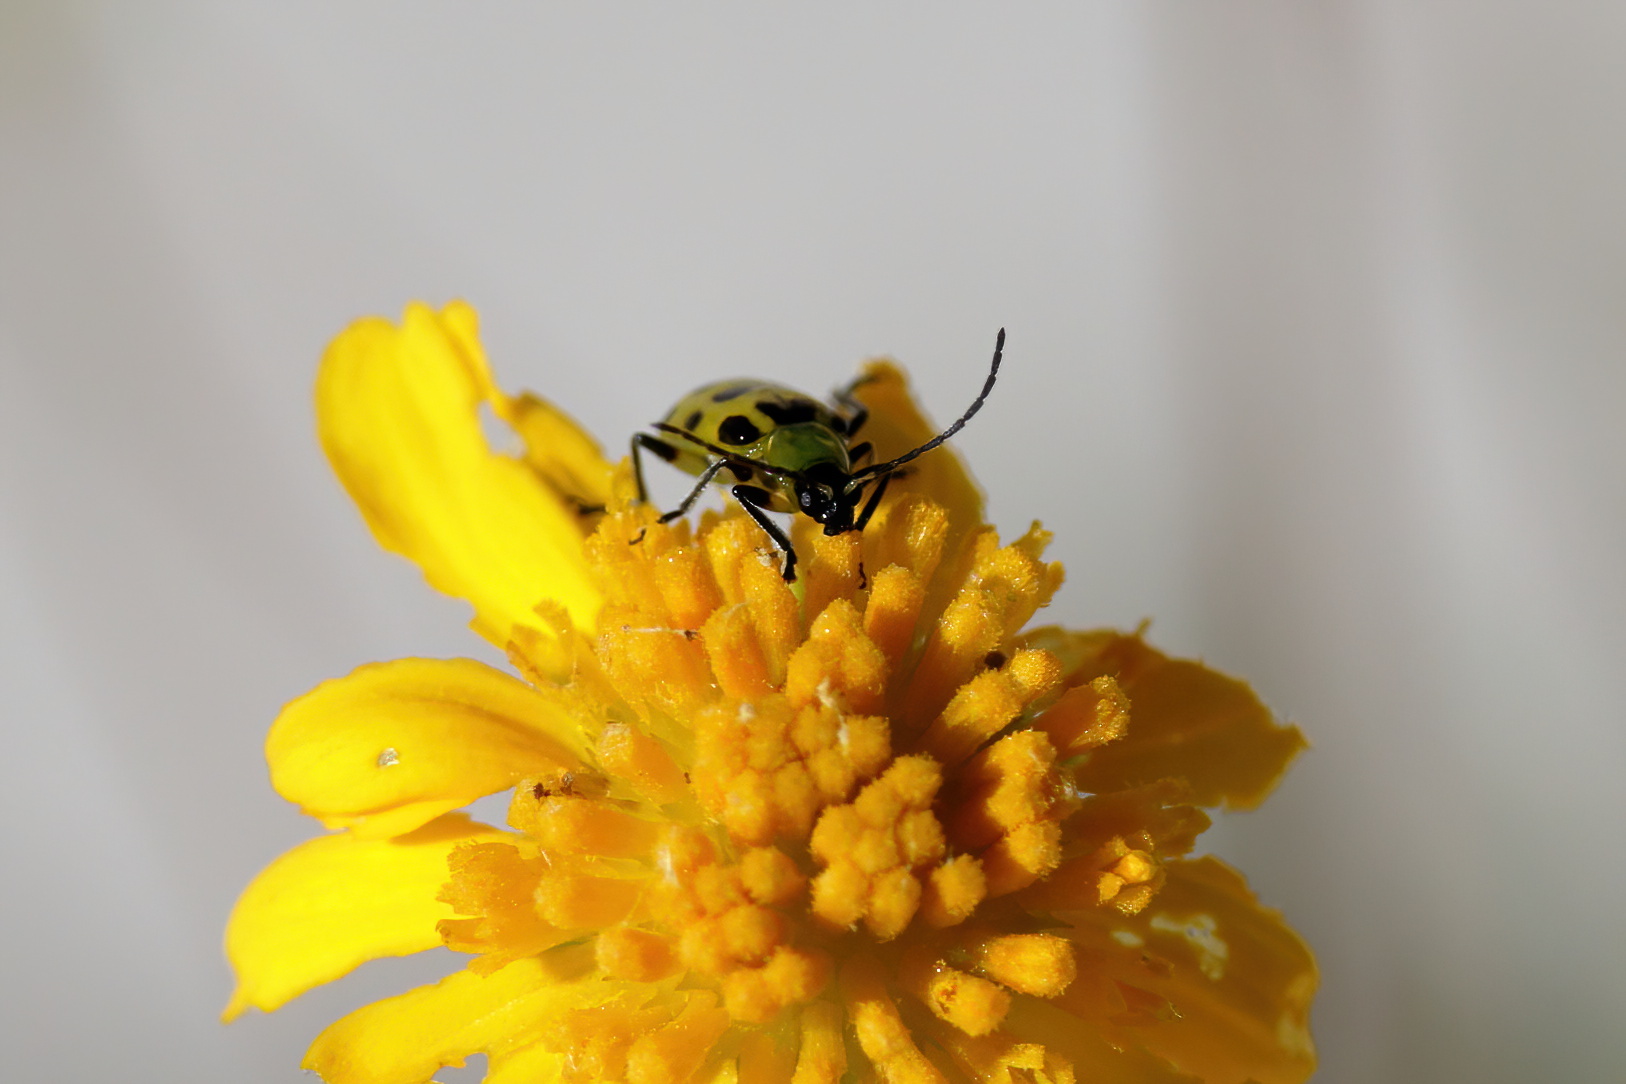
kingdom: Animalia
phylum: Arthropoda
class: Insecta
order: Coleoptera
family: Chrysomelidae
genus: Diabrotica
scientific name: Diabrotica undecimpunctata
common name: Spotted cucumber beetle
